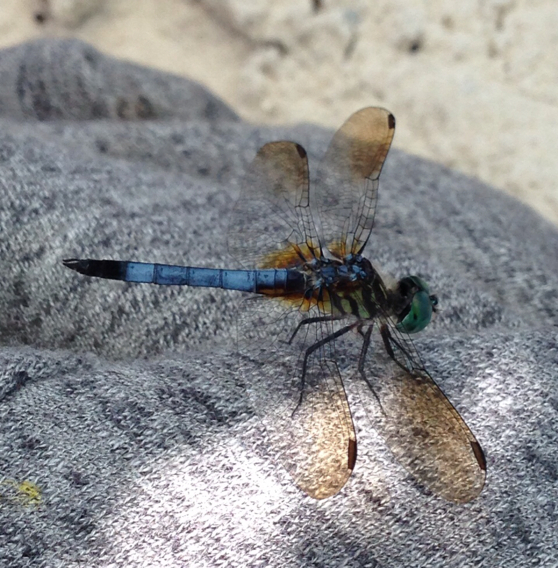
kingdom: Animalia
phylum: Arthropoda
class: Insecta
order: Odonata
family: Libellulidae
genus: Pachydiplax
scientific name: Pachydiplax longipennis
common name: Blue dasher
